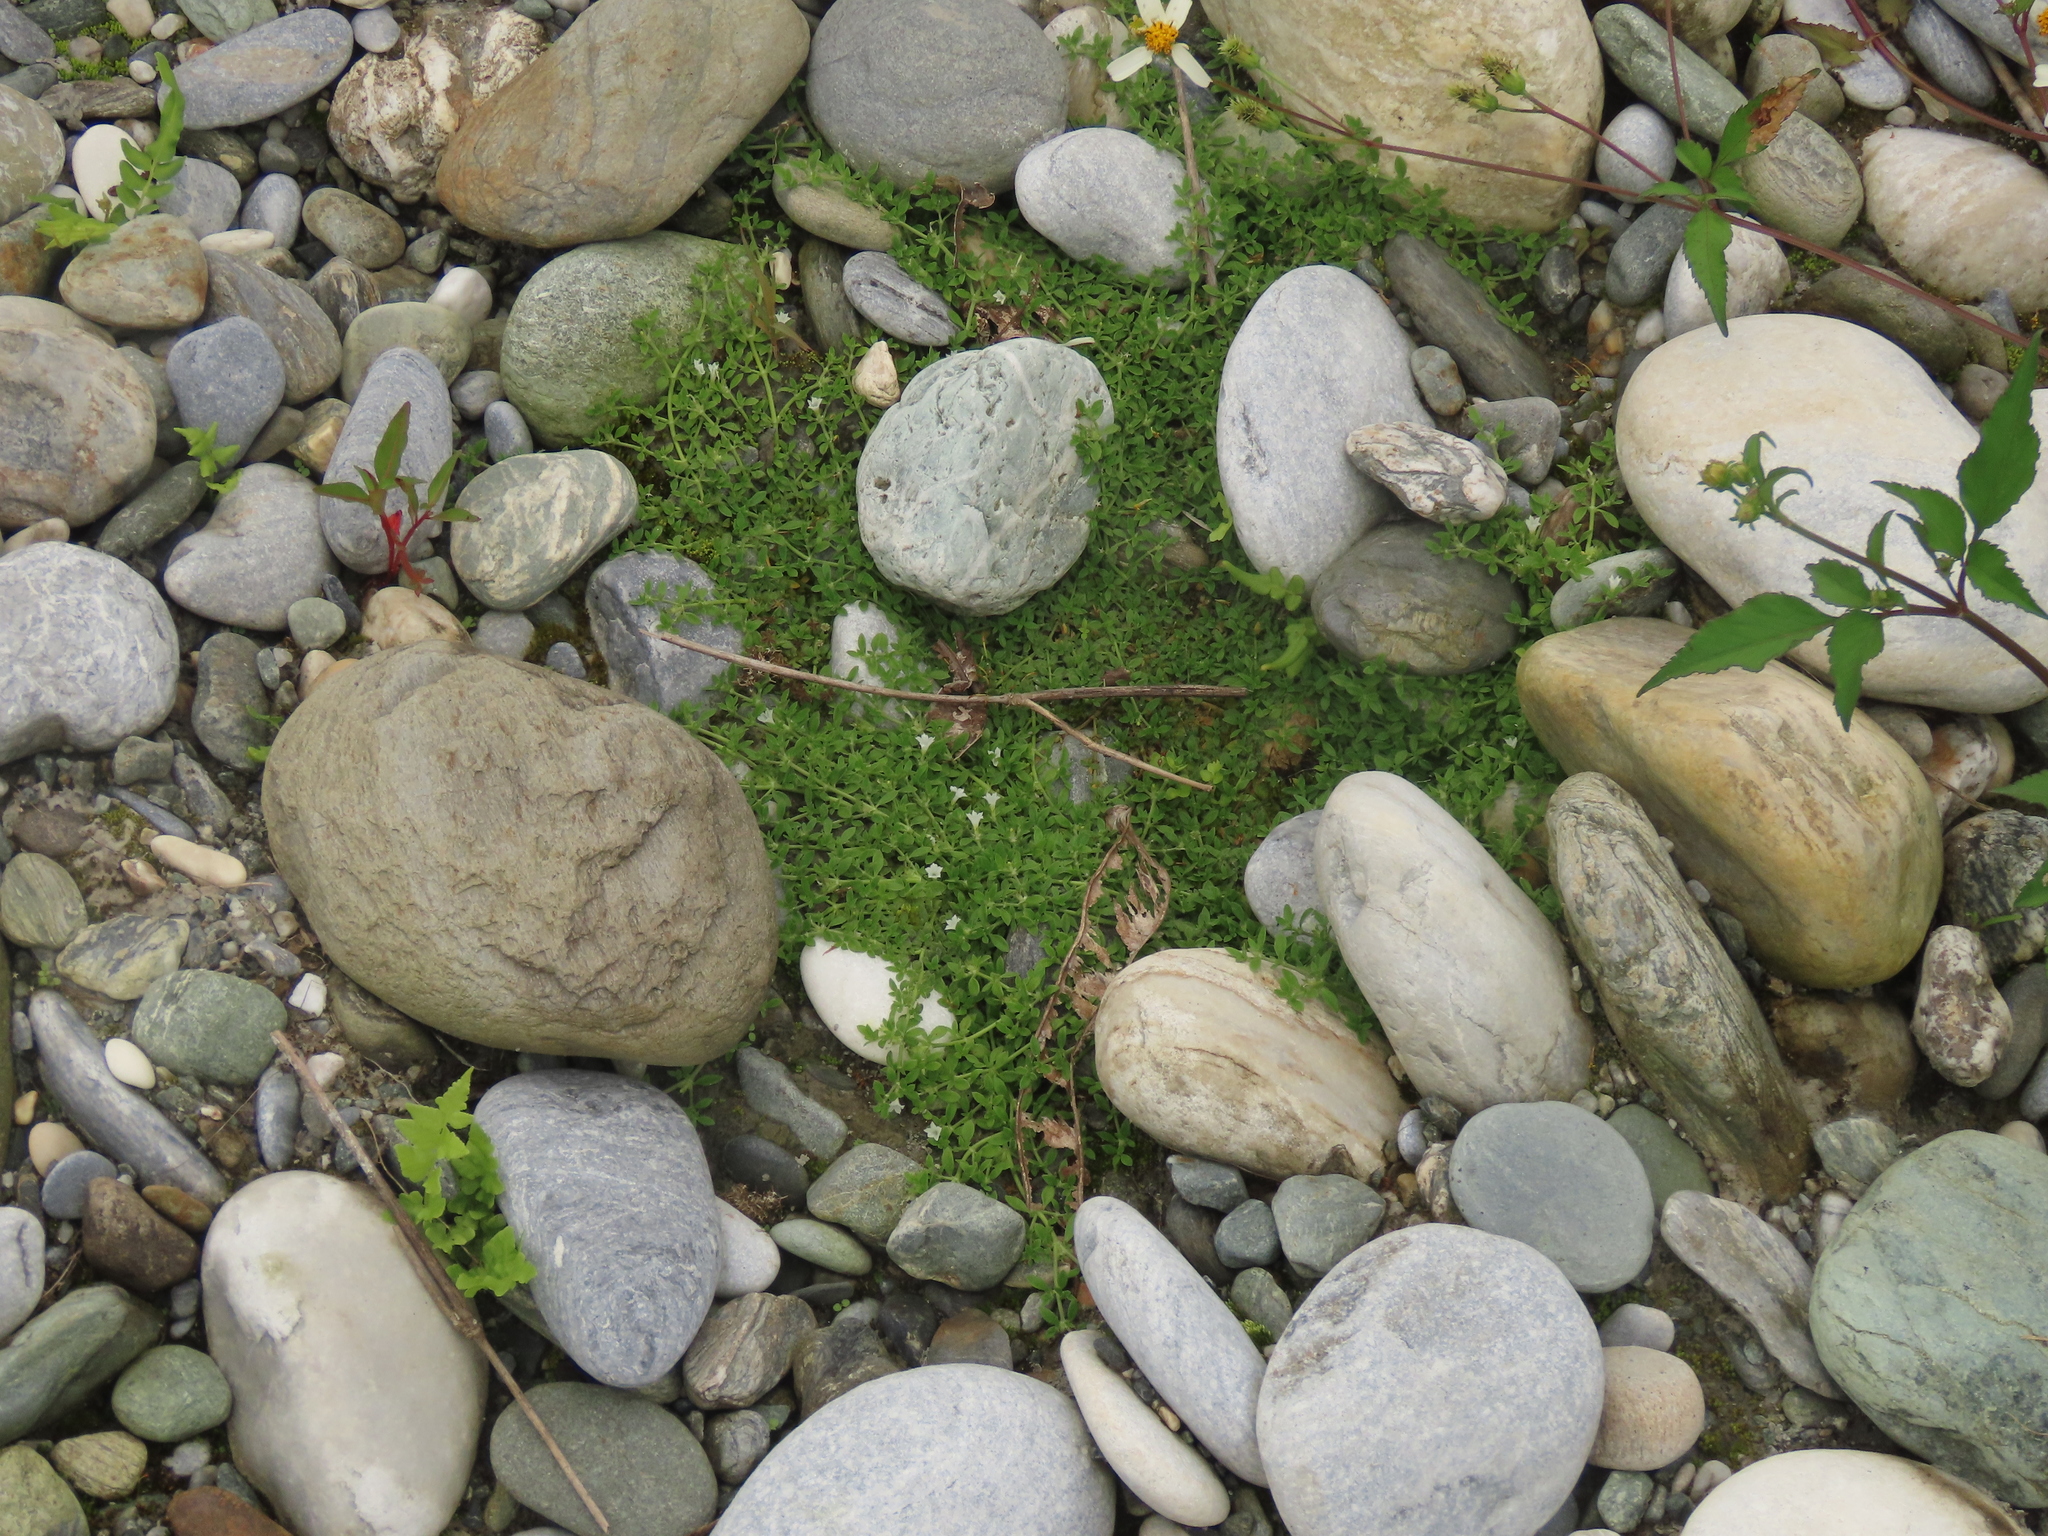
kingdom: Plantae
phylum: Tracheophyta
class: Magnoliopsida
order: Gentianales
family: Rubiaceae
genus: Dentella
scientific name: Dentella repens
